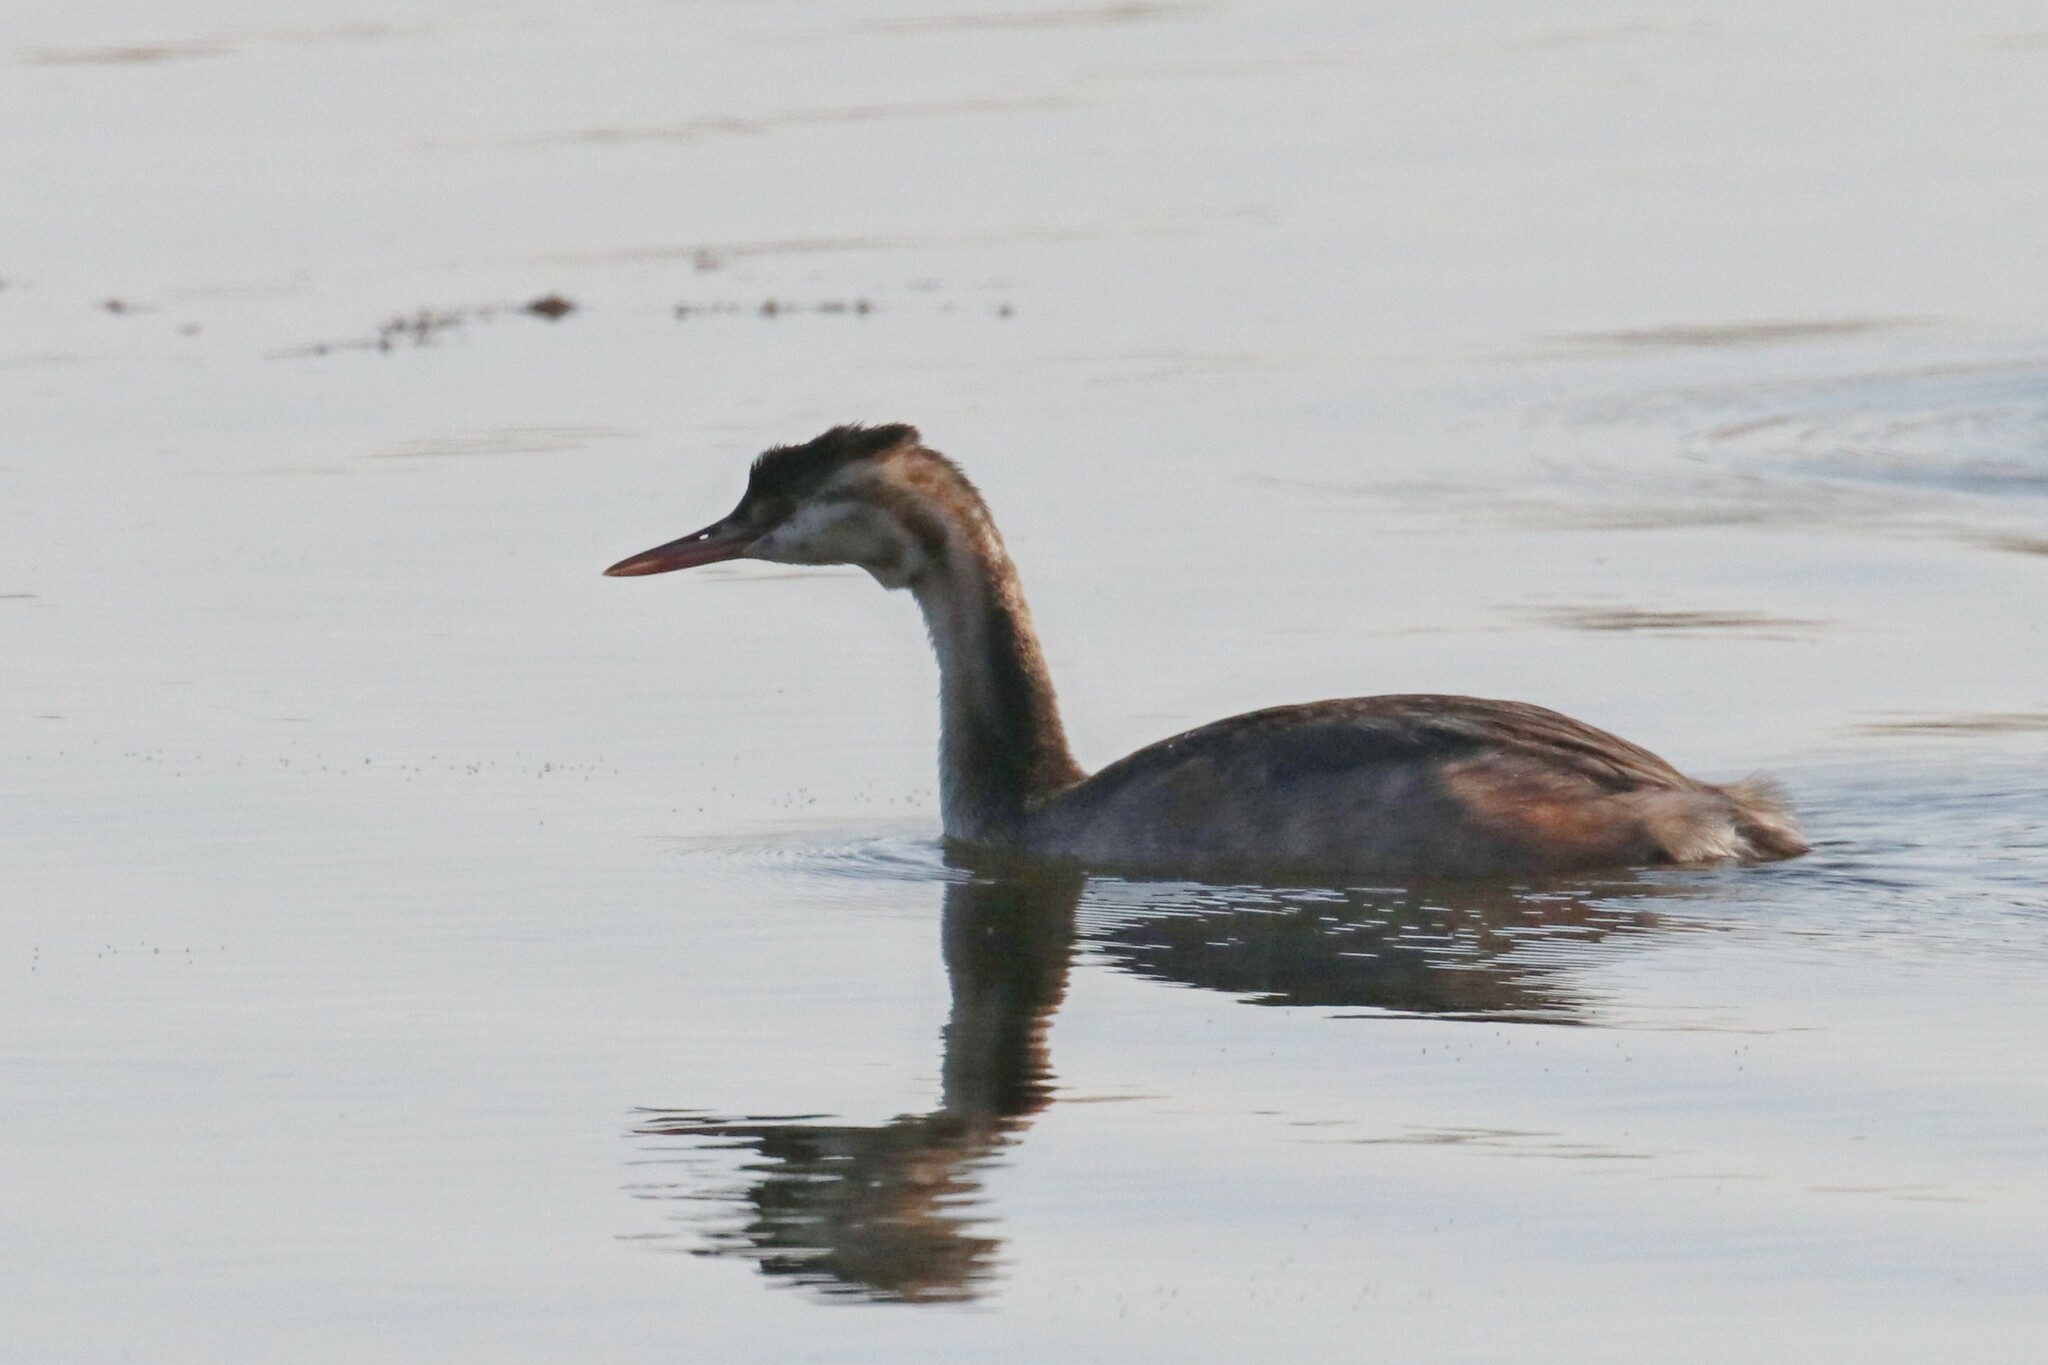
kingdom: Animalia
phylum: Chordata
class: Aves
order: Podicipediformes
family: Podicipedidae
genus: Podiceps
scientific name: Podiceps cristatus
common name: Great crested grebe
